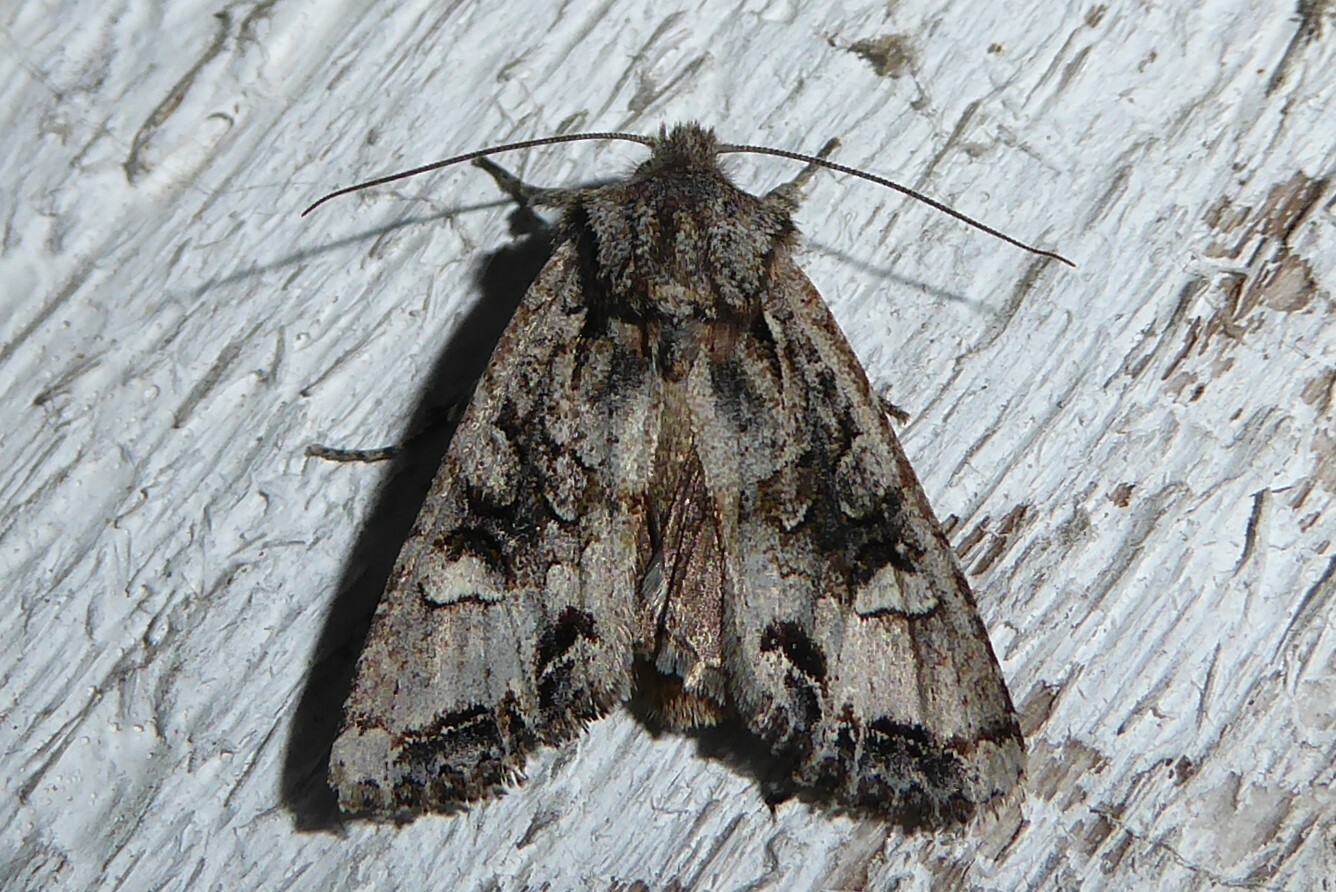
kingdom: Animalia
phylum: Arthropoda
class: Insecta
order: Lepidoptera
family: Noctuidae
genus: Ichneutica
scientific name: Ichneutica
